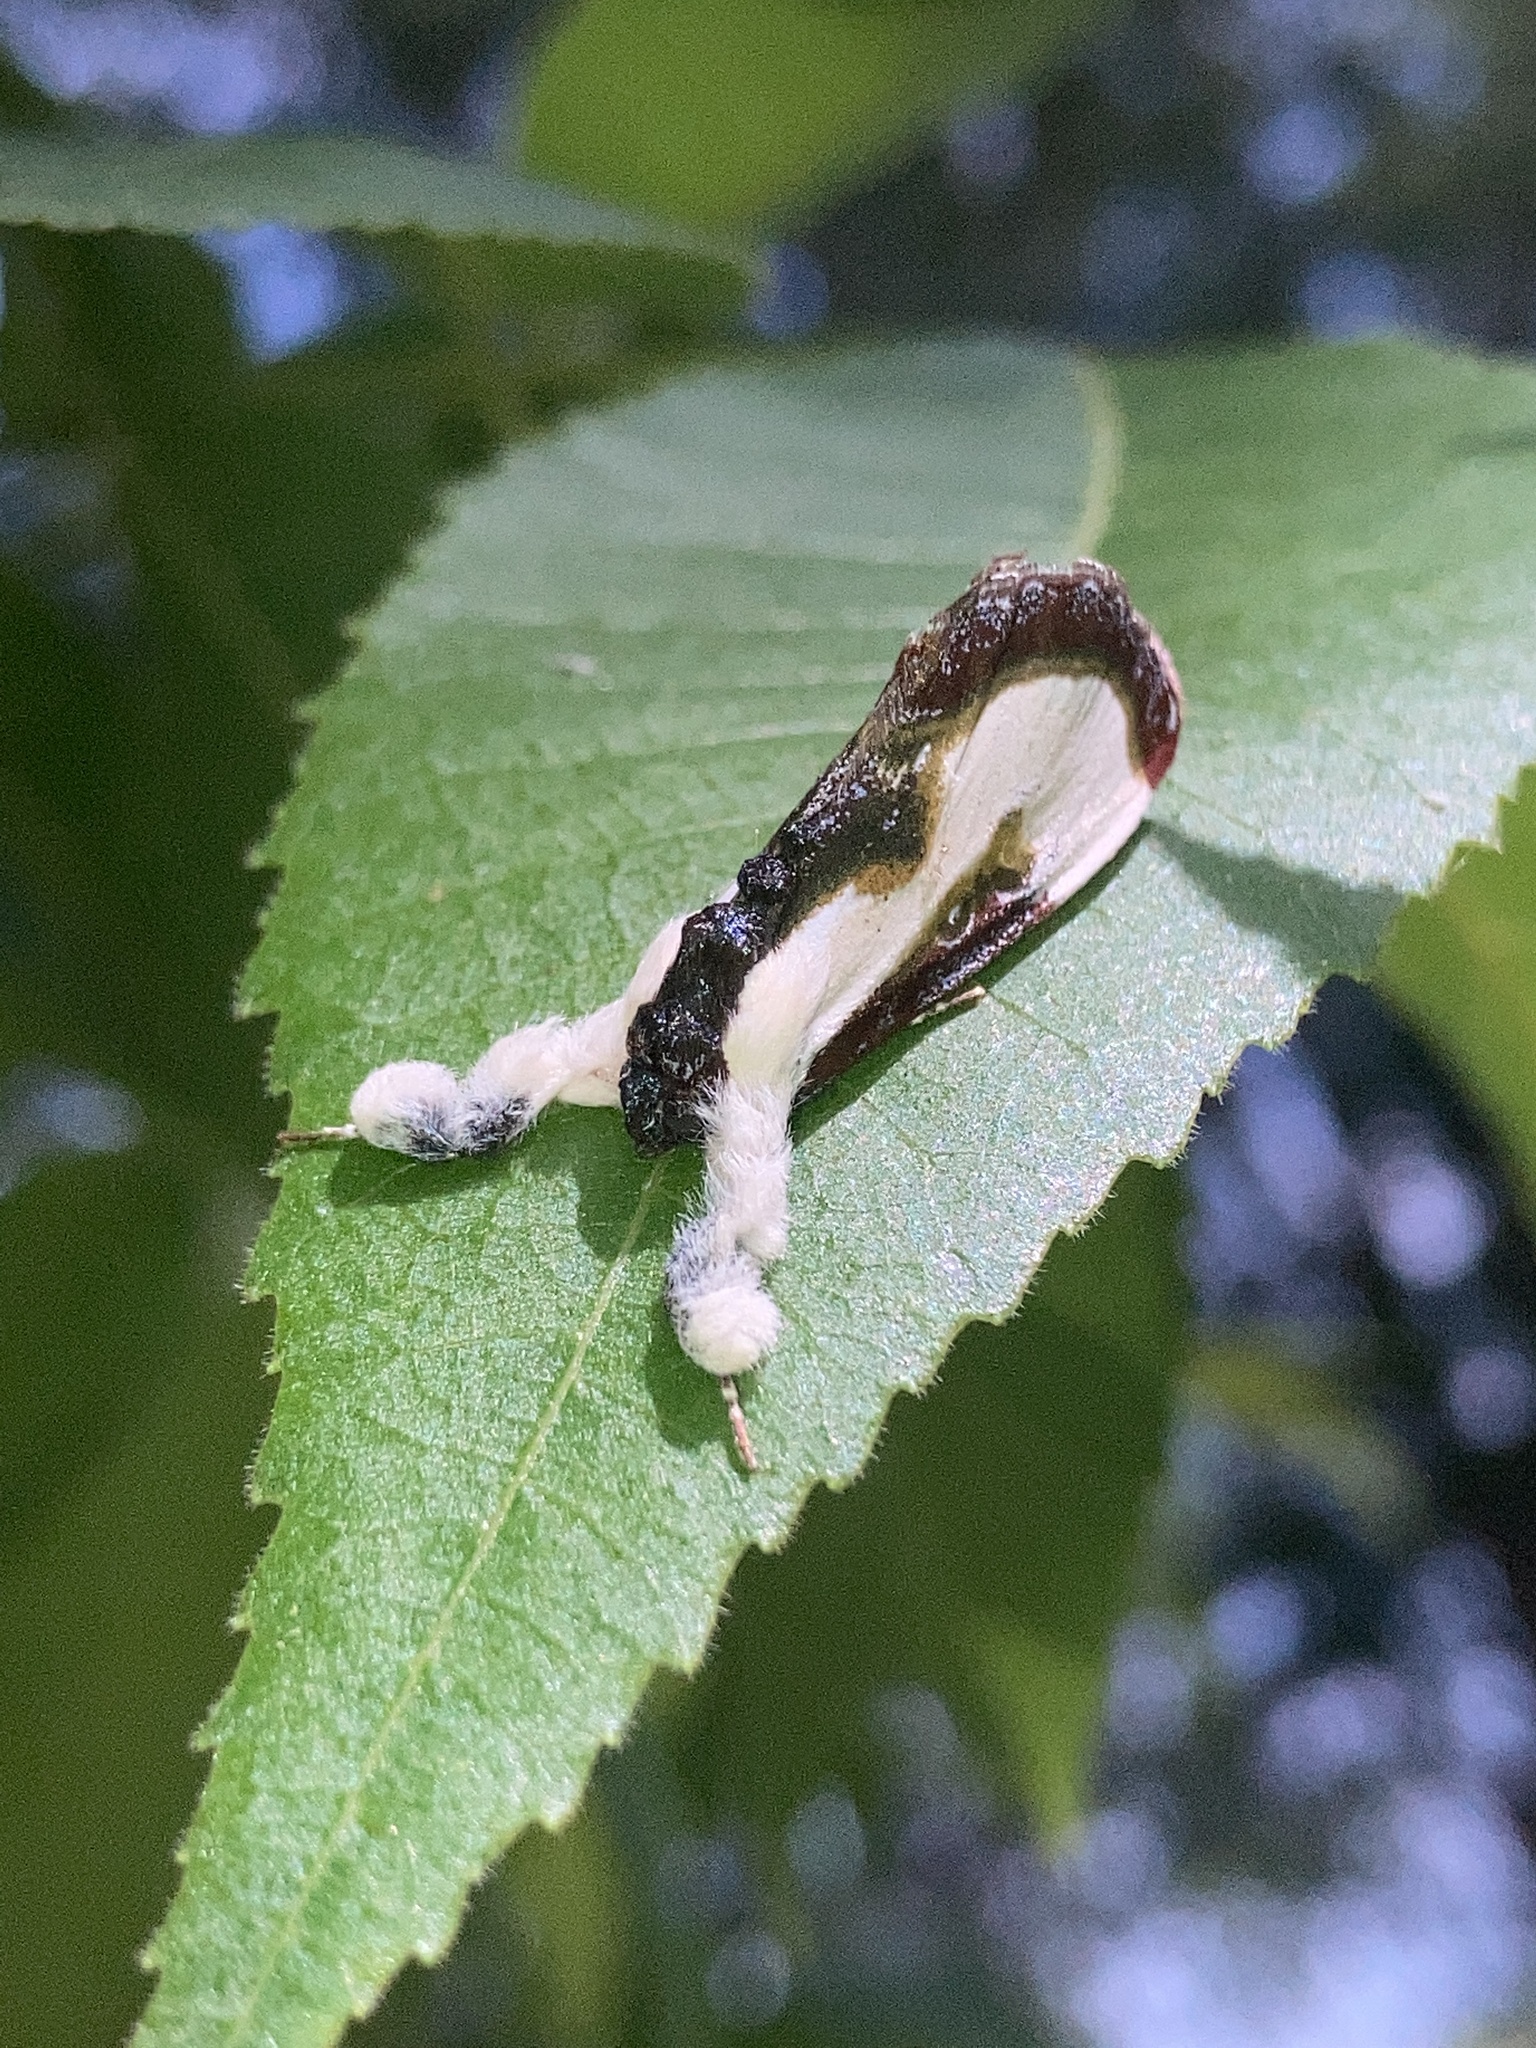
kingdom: Animalia
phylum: Arthropoda
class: Insecta
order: Lepidoptera
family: Noctuidae
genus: Eudryas
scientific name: Eudryas grata
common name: Beautiful wood-nymph
